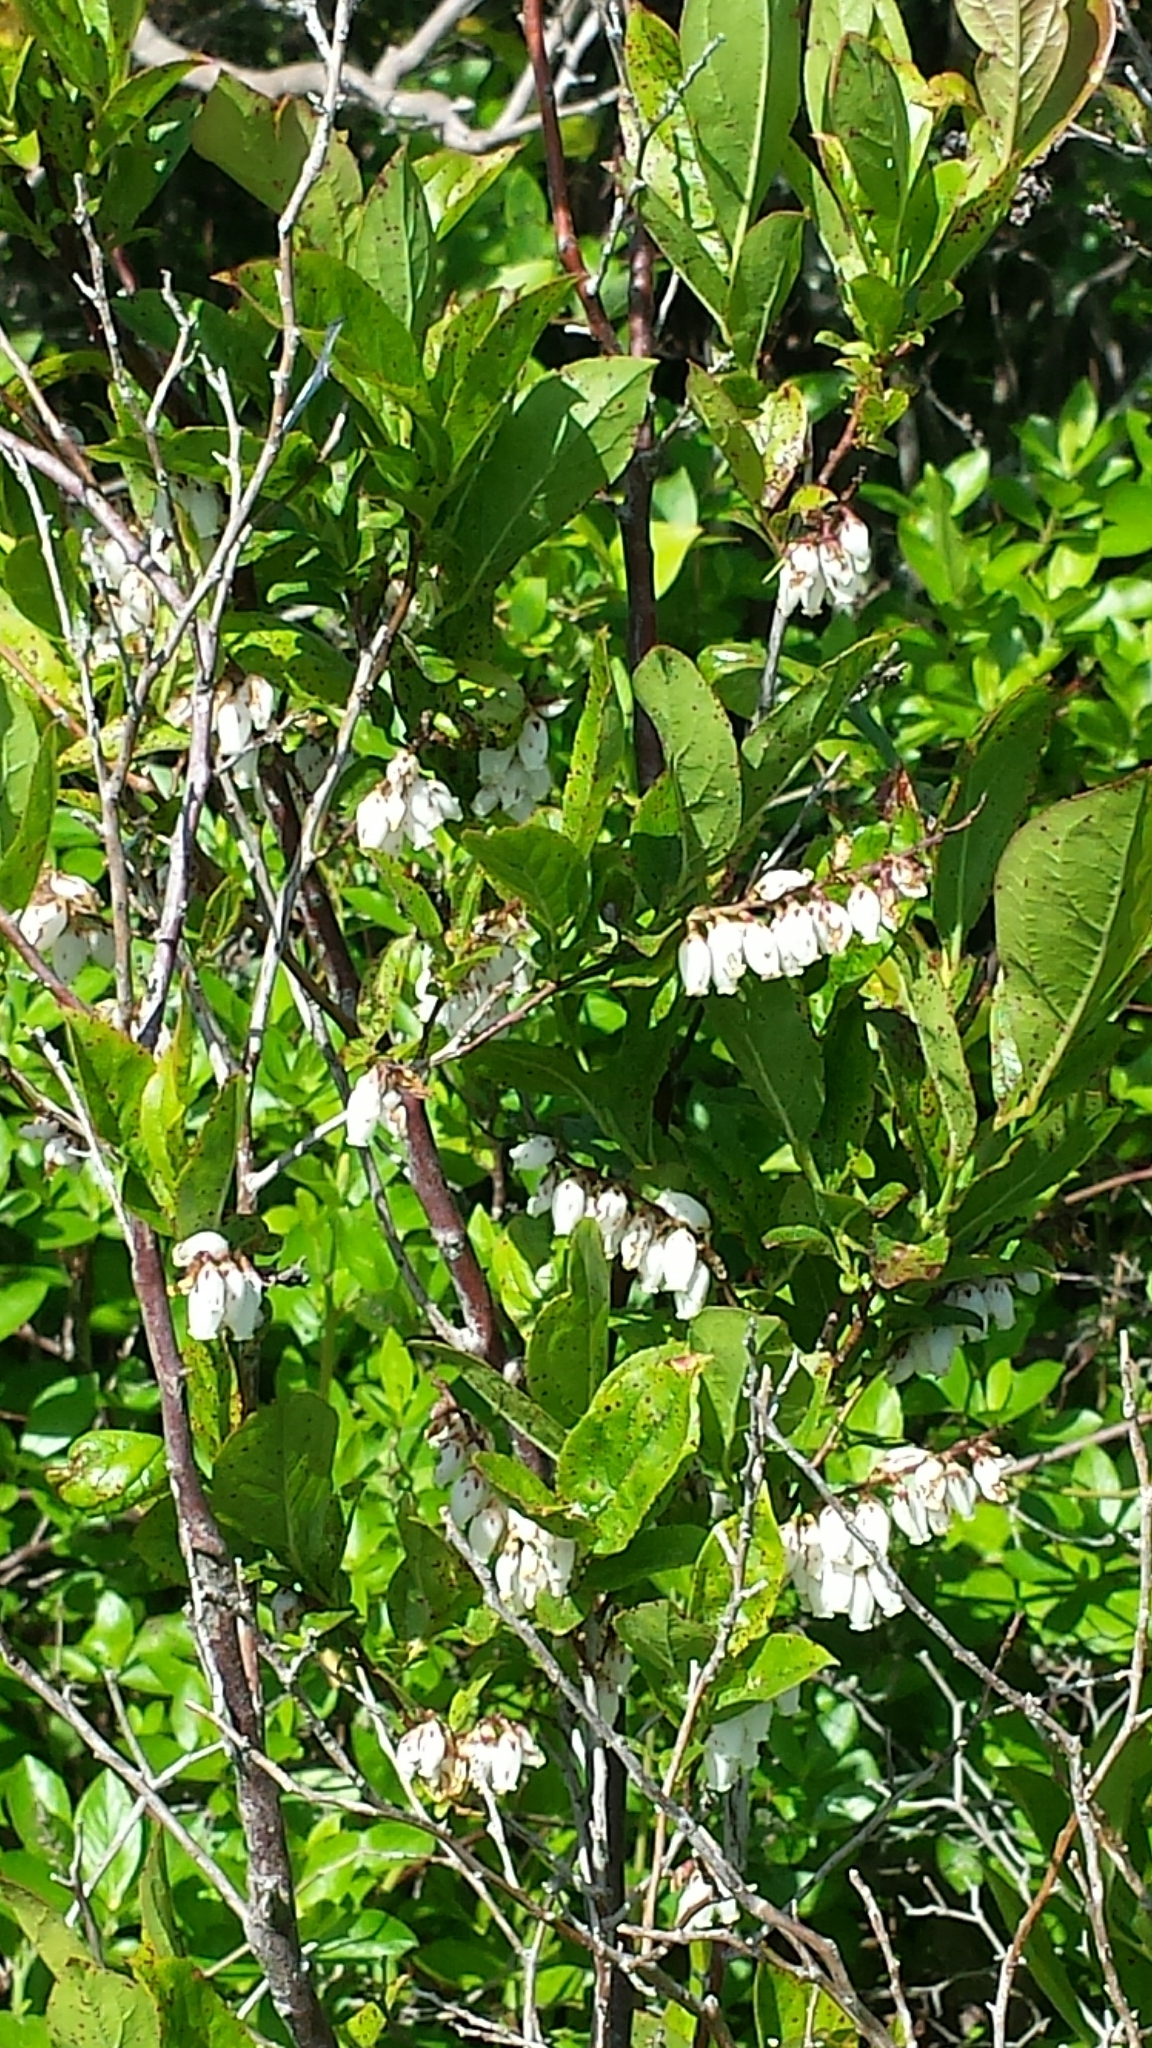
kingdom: Plantae
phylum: Tracheophyta
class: Magnoliopsida
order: Ericales
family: Ericaceae
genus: Eubotrys
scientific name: Eubotrys racemosa
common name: Fetterbush
